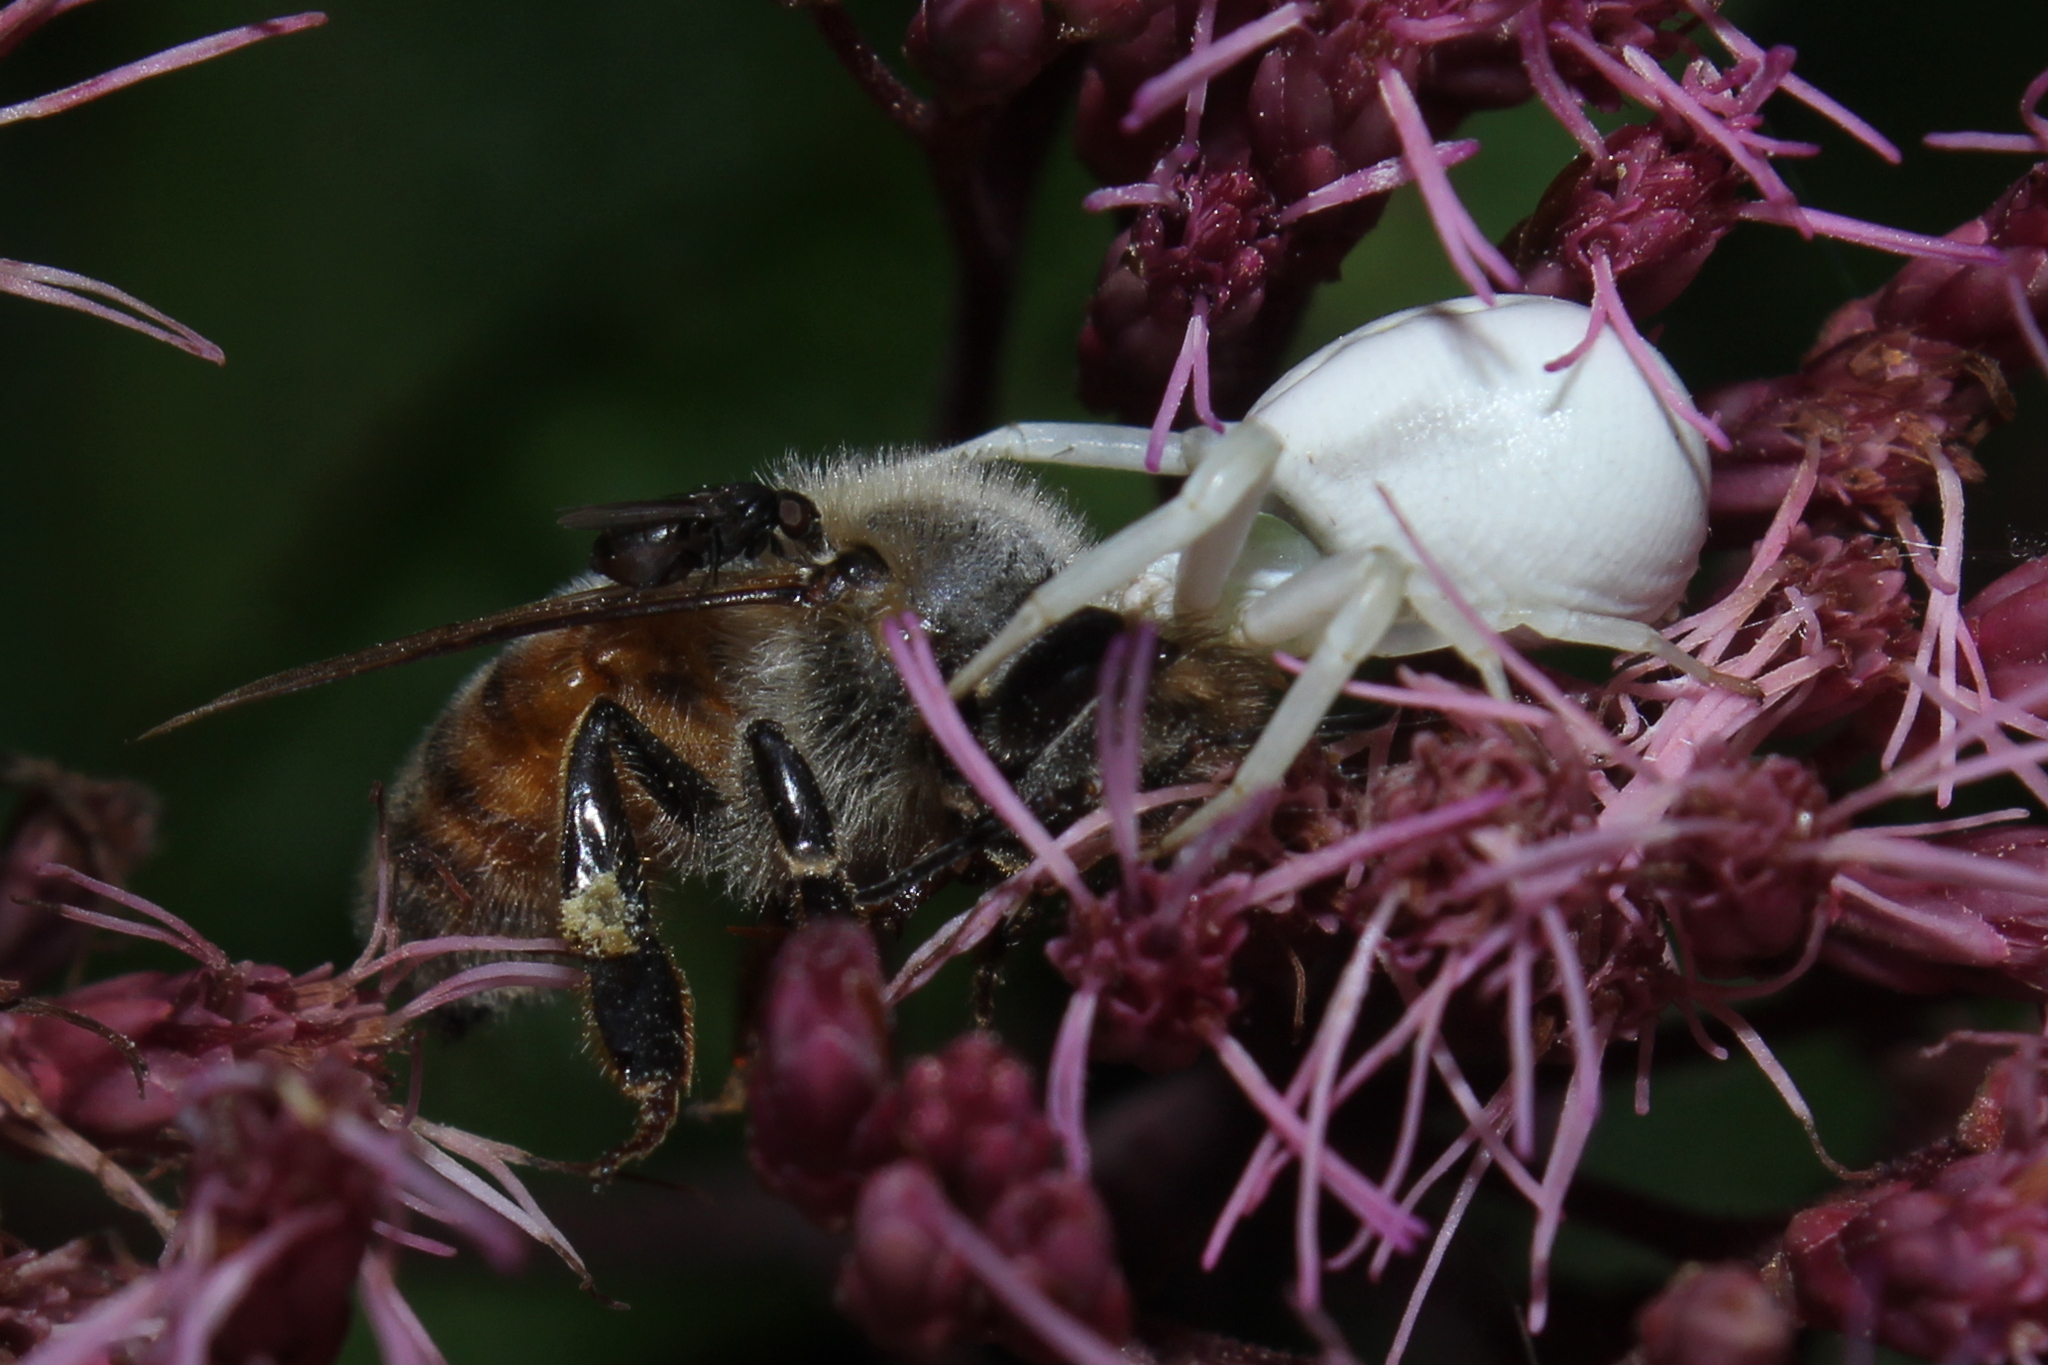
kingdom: Animalia
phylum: Arthropoda
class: Arachnida
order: Araneae
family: Thomisidae
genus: Misumenoides
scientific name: Misumenoides formosipes
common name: White-banded crab spider
